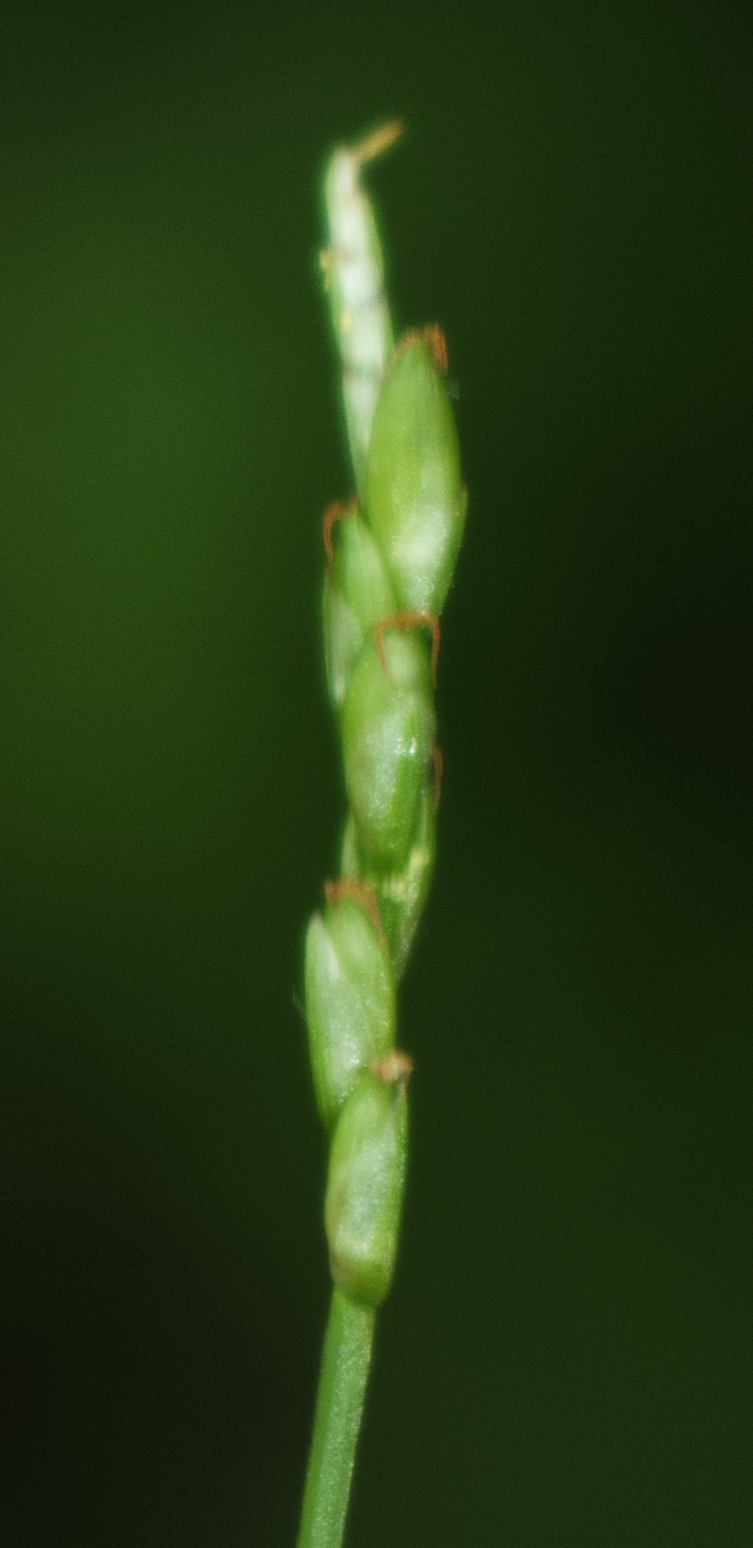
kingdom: Plantae
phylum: Tracheophyta
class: Liliopsida
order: Poales
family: Cyperaceae
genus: Carex
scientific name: Carex leptalea
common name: Bristly-stalked sedge
